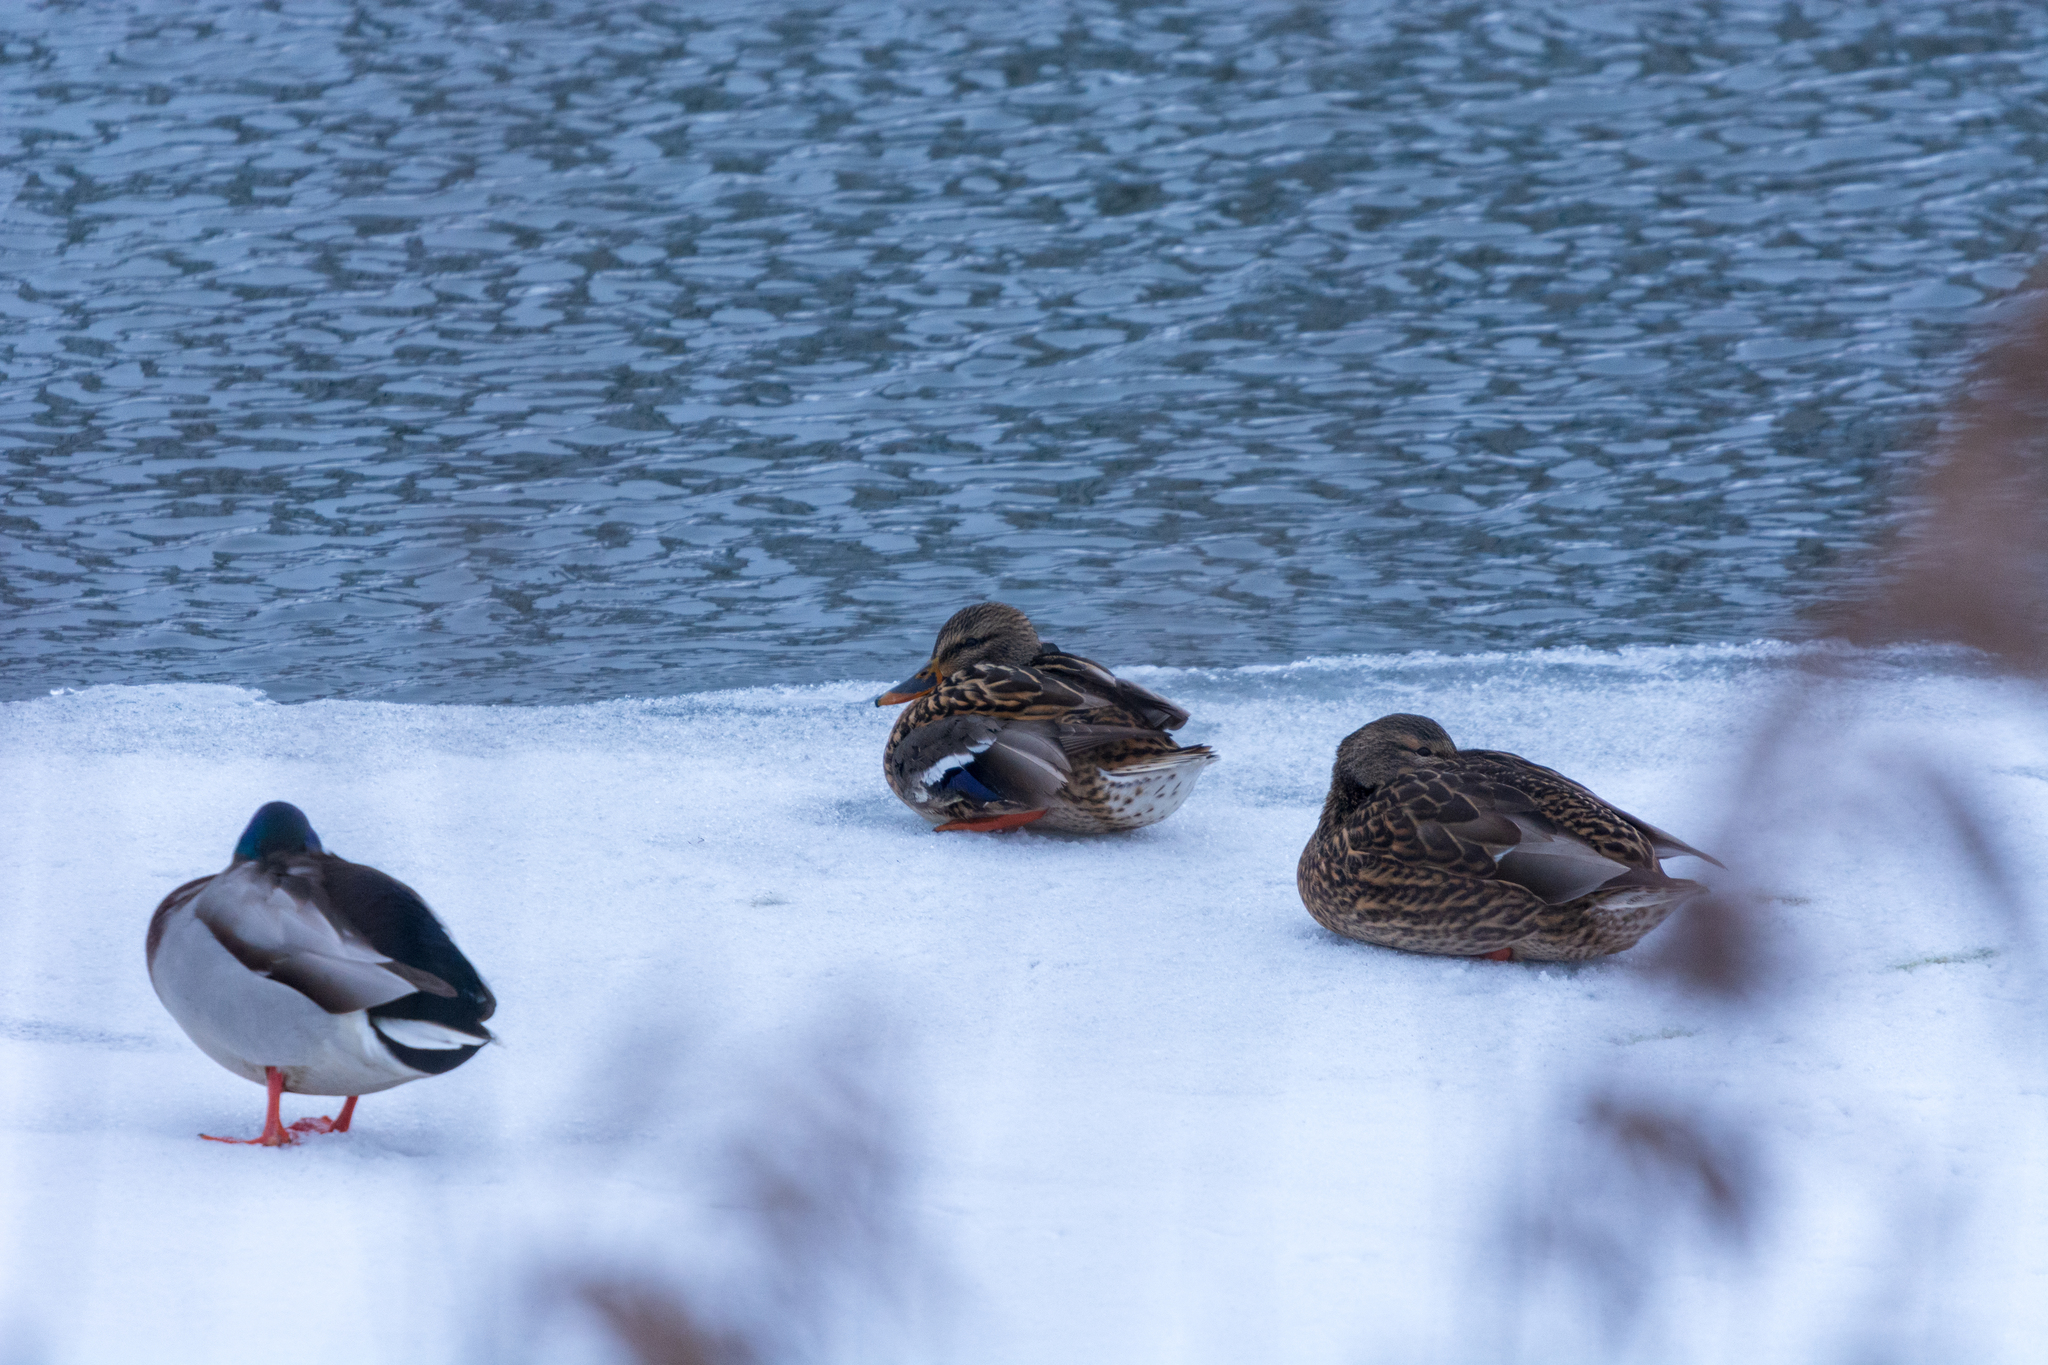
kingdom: Animalia
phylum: Chordata
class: Aves
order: Anseriformes
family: Anatidae
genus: Anas
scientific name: Anas platyrhynchos
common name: Mallard
